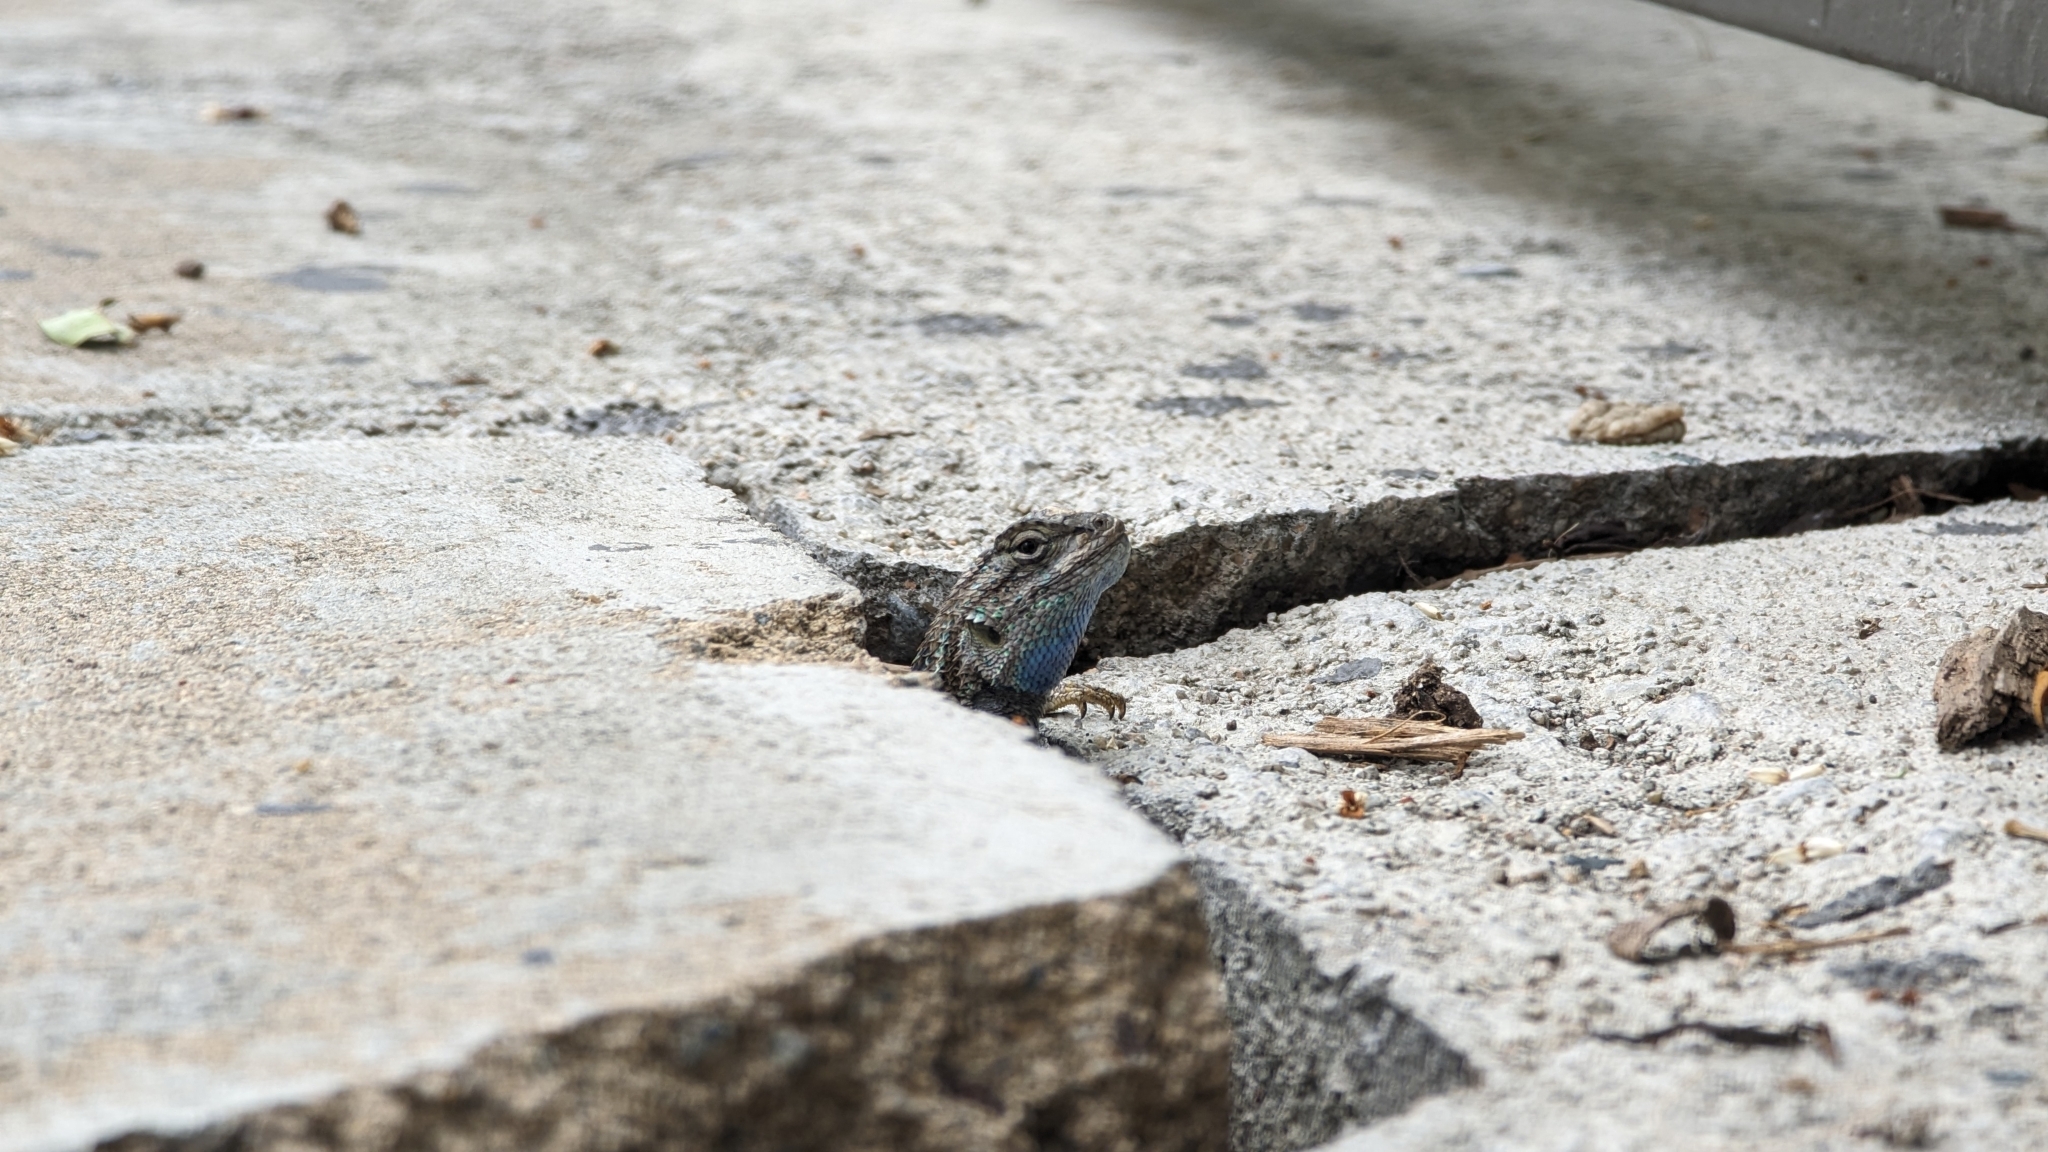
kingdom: Animalia
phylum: Chordata
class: Squamata
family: Phrynosomatidae
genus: Sceloporus
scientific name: Sceloporus occidentalis
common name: Western fence lizard
